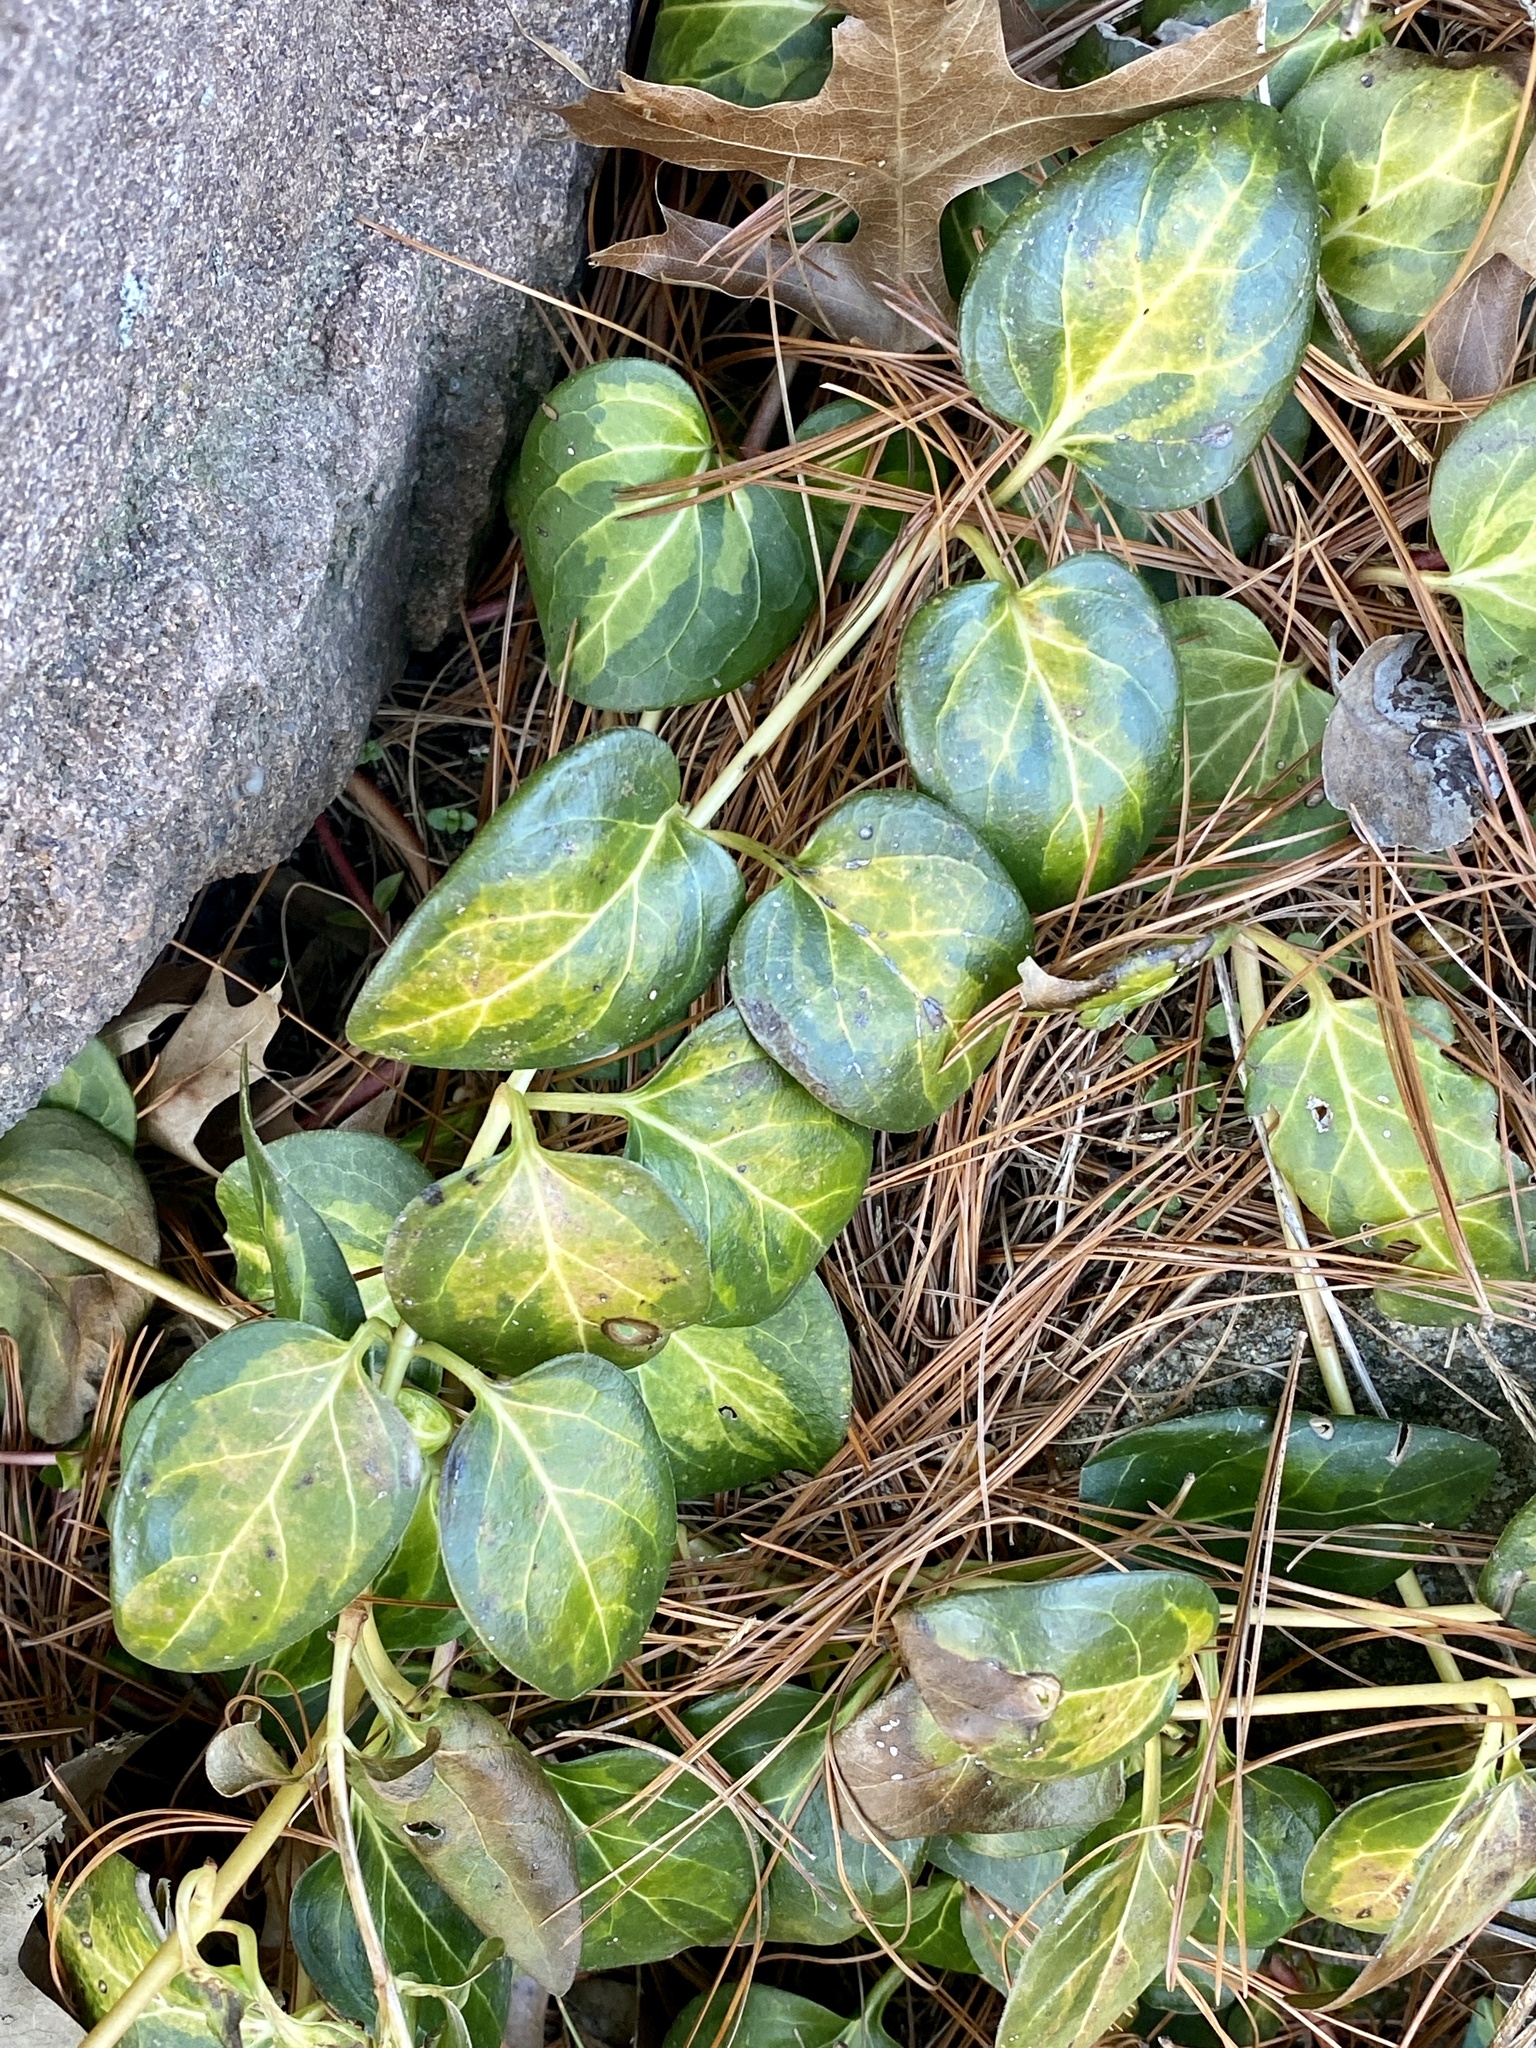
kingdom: Plantae
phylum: Tracheophyta
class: Magnoliopsida
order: Gentianales
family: Apocynaceae
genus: Vinca
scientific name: Vinca major
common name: Greater periwinkle
